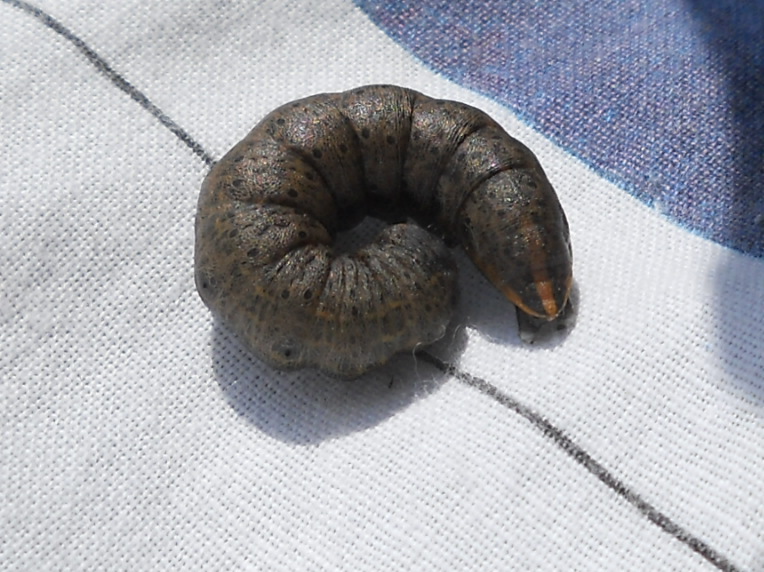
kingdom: Animalia
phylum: Arthropoda
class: Insecta
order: Lepidoptera
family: Noctuidae
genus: Cucullia
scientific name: Cucullia umbratica
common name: Shark
